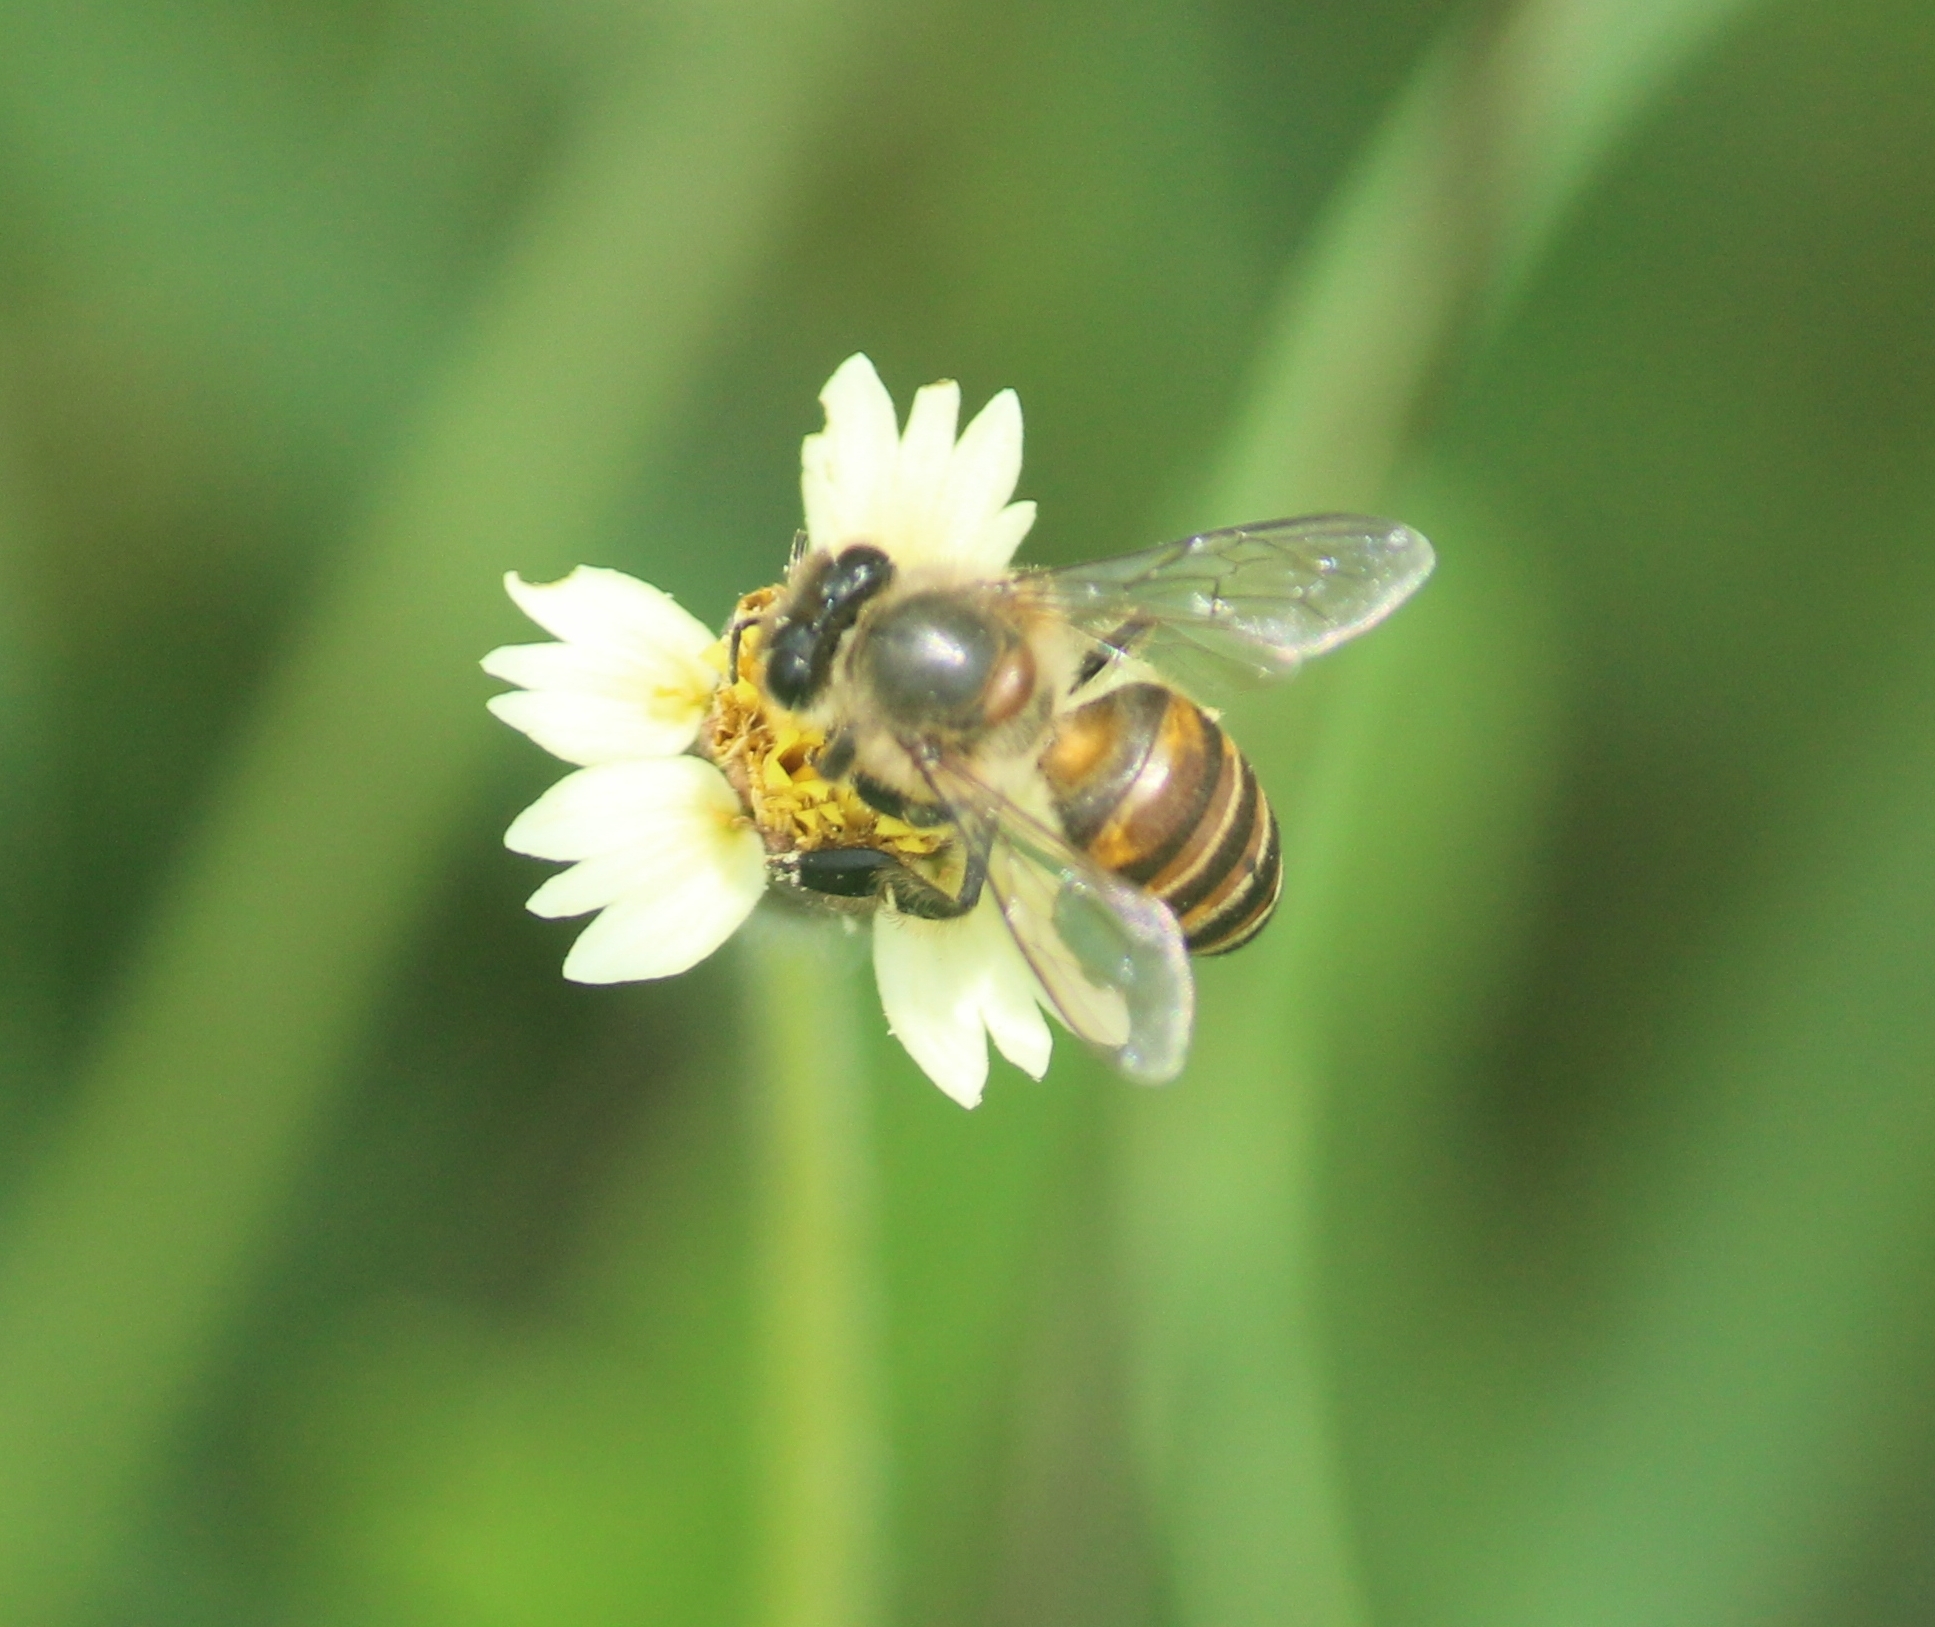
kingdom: Animalia
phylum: Arthropoda
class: Insecta
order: Hymenoptera
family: Apidae
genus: Apis
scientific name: Apis cerana
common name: Honey bee
